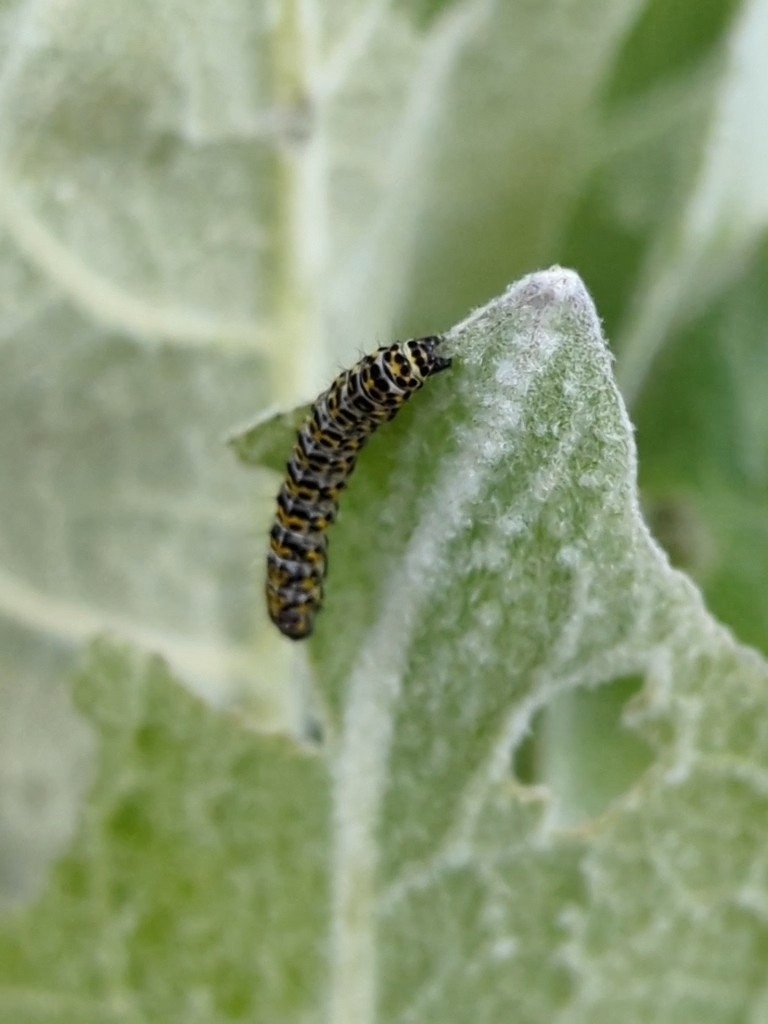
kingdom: Animalia
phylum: Arthropoda
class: Insecta
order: Lepidoptera
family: Noctuidae
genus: Cucullia
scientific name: Cucullia verbasci
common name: Mullein
